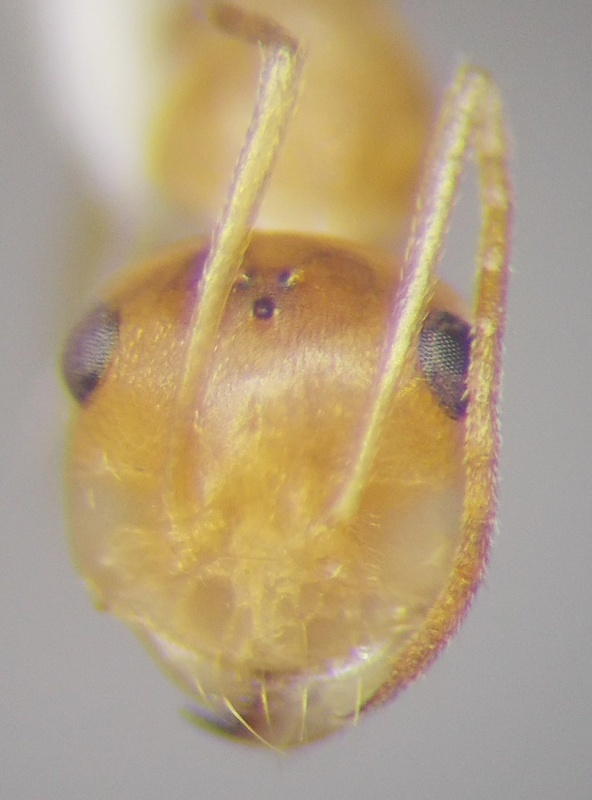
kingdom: Animalia
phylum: Arthropoda
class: Insecta
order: Hymenoptera
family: Formicidae
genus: Cataglyphis
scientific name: Cataglyphis pallidus
